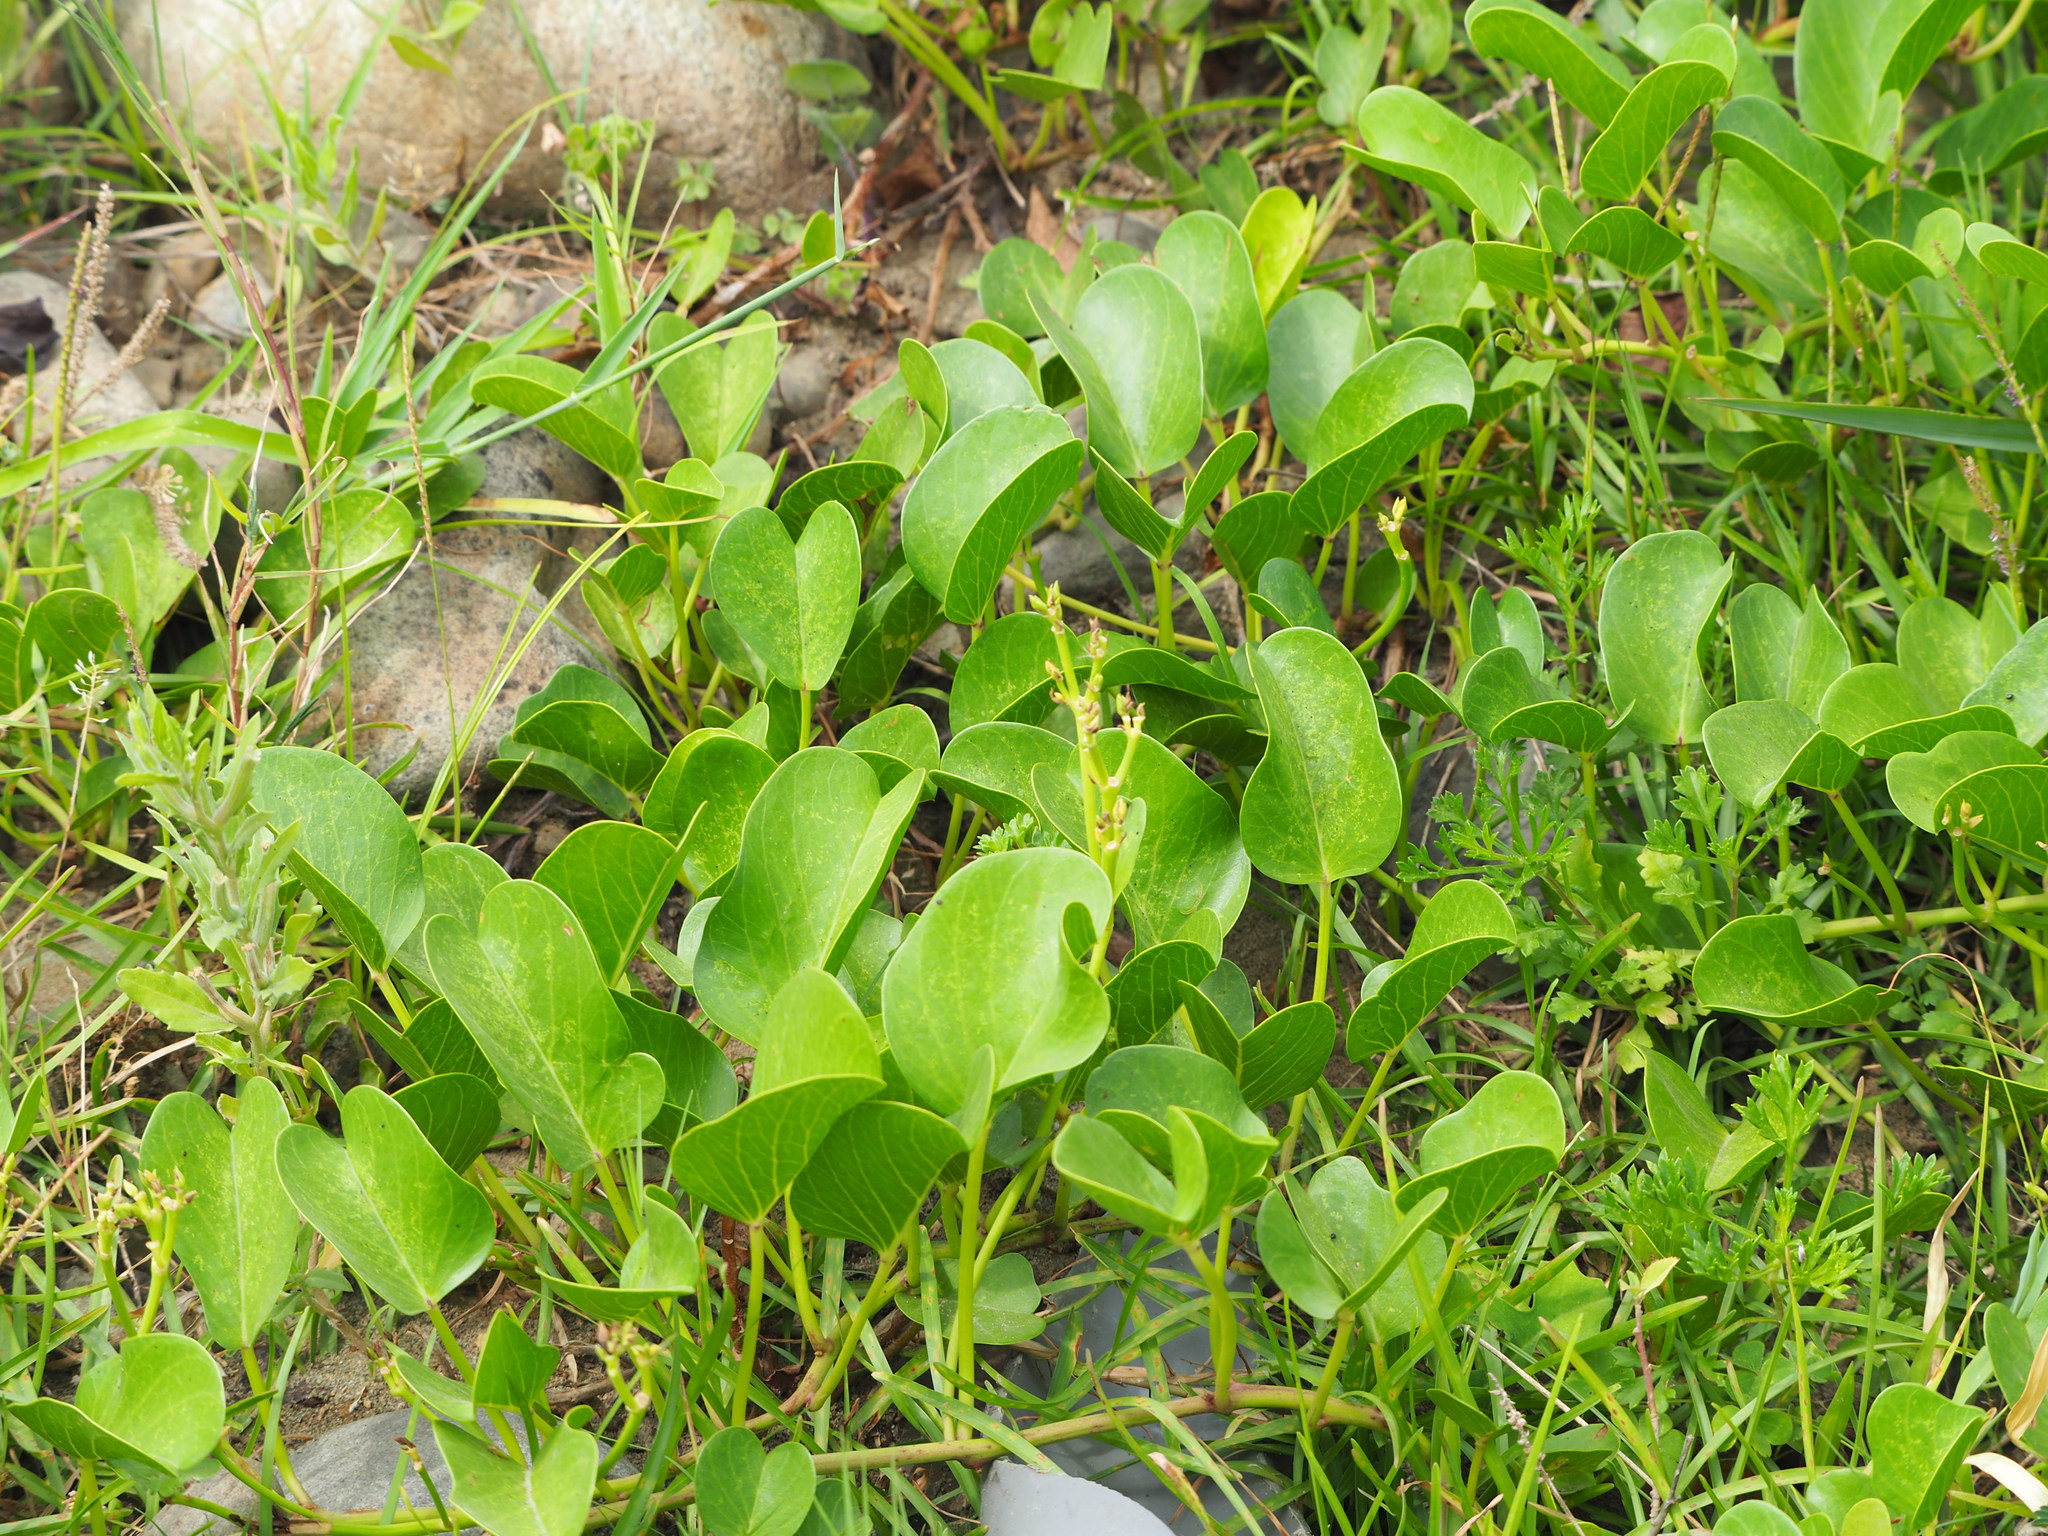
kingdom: Plantae
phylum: Tracheophyta
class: Magnoliopsida
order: Solanales
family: Convolvulaceae
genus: Ipomoea
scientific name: Ipomoea pes-caprae
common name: Beach morning glory
